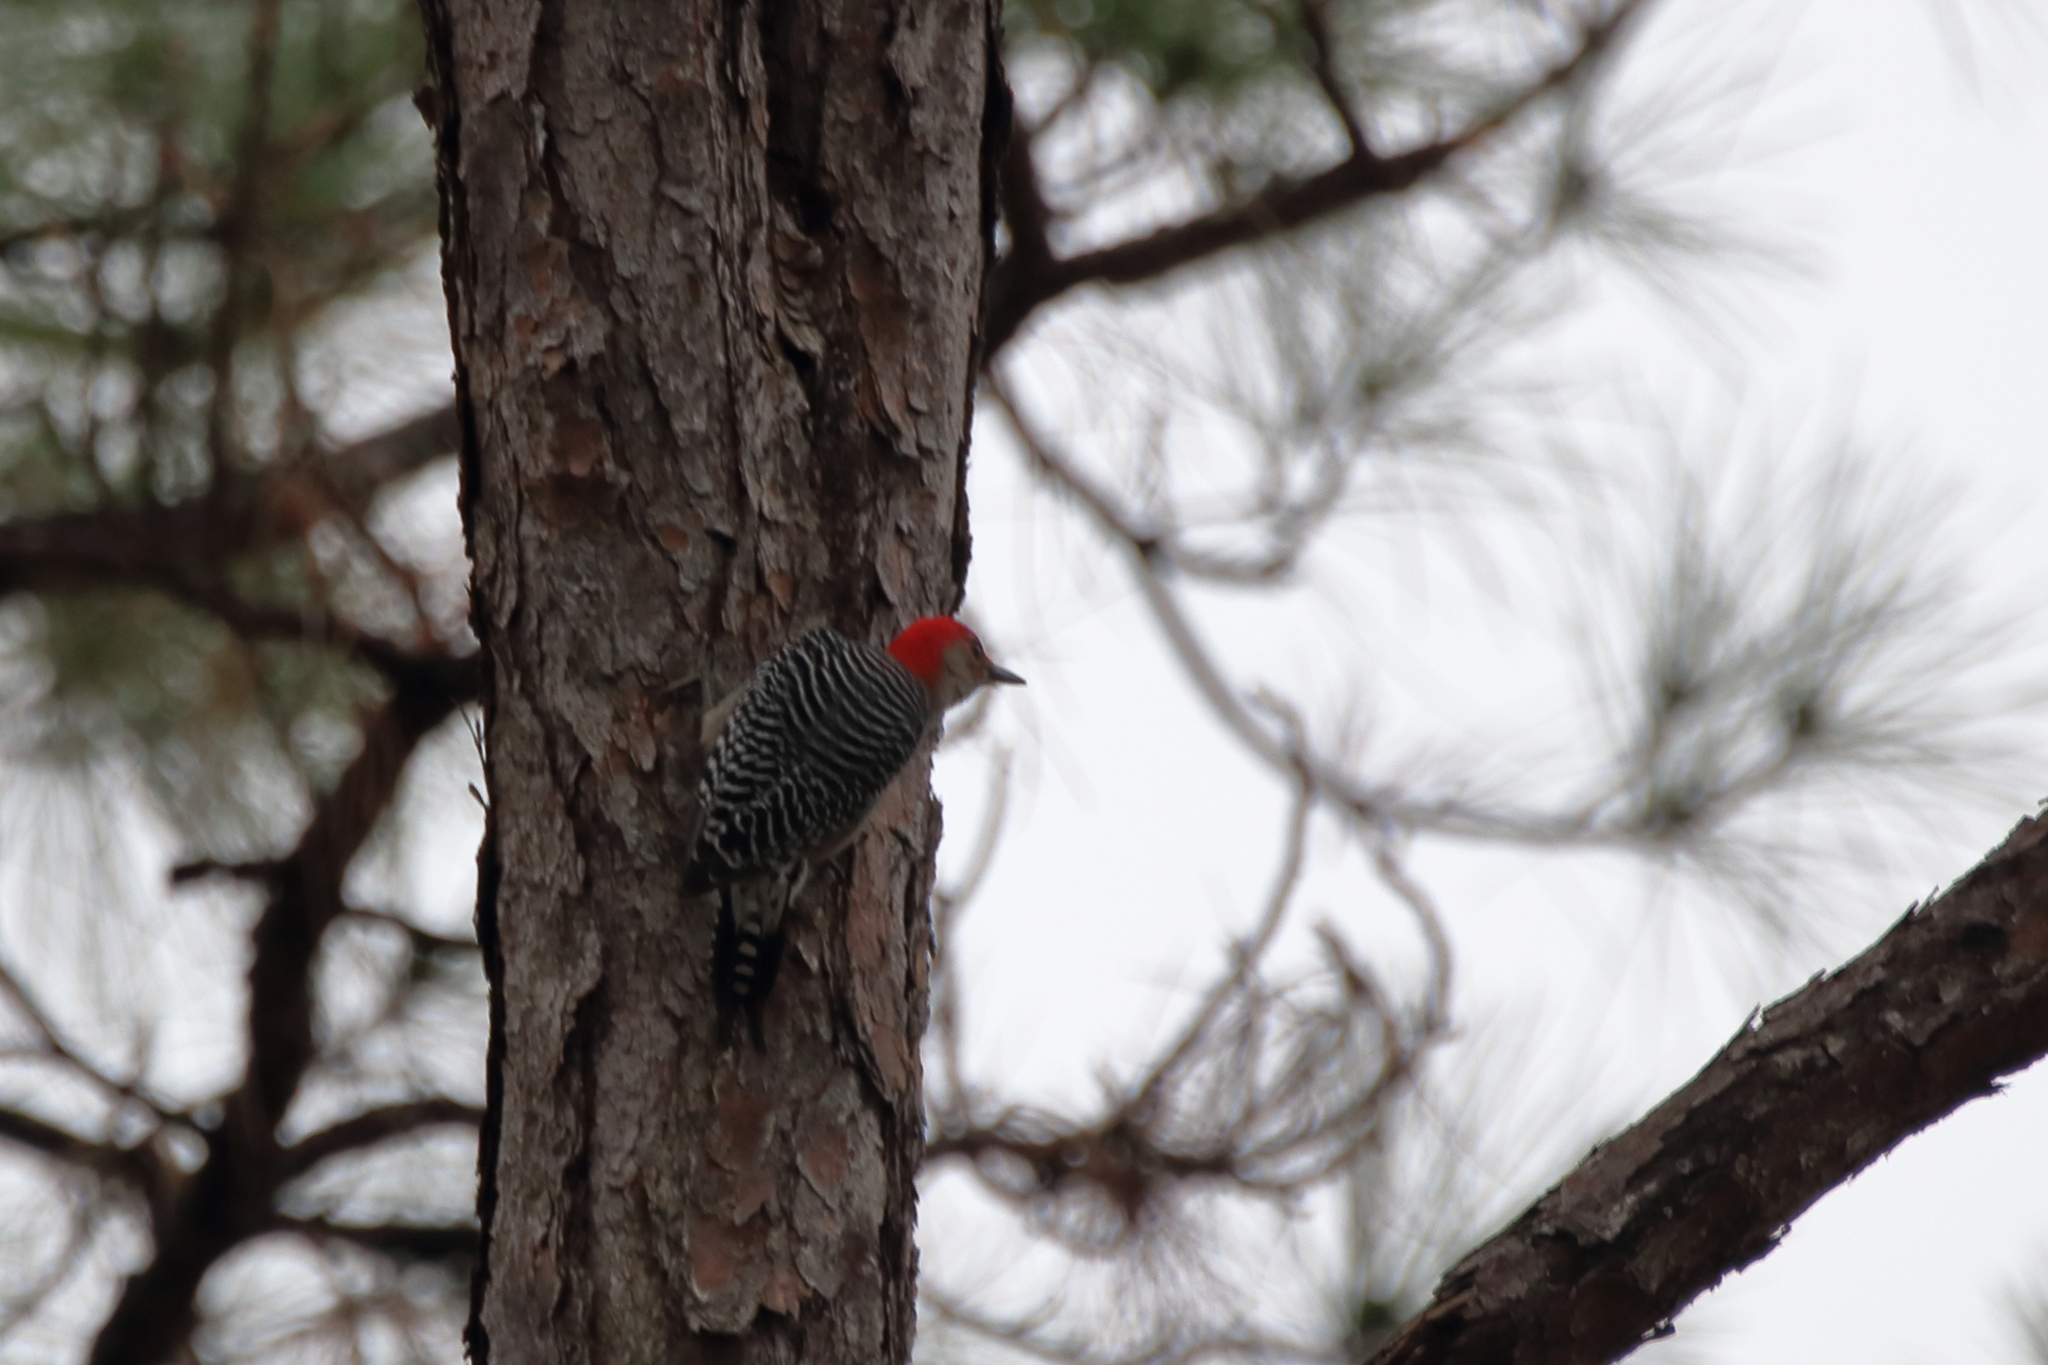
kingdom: Animalia
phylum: Chordata
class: Aves
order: Piciformes
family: Picidae
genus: Melanerpes
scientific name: Melanerpes carolinus
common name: Red-bellied woodpecker
